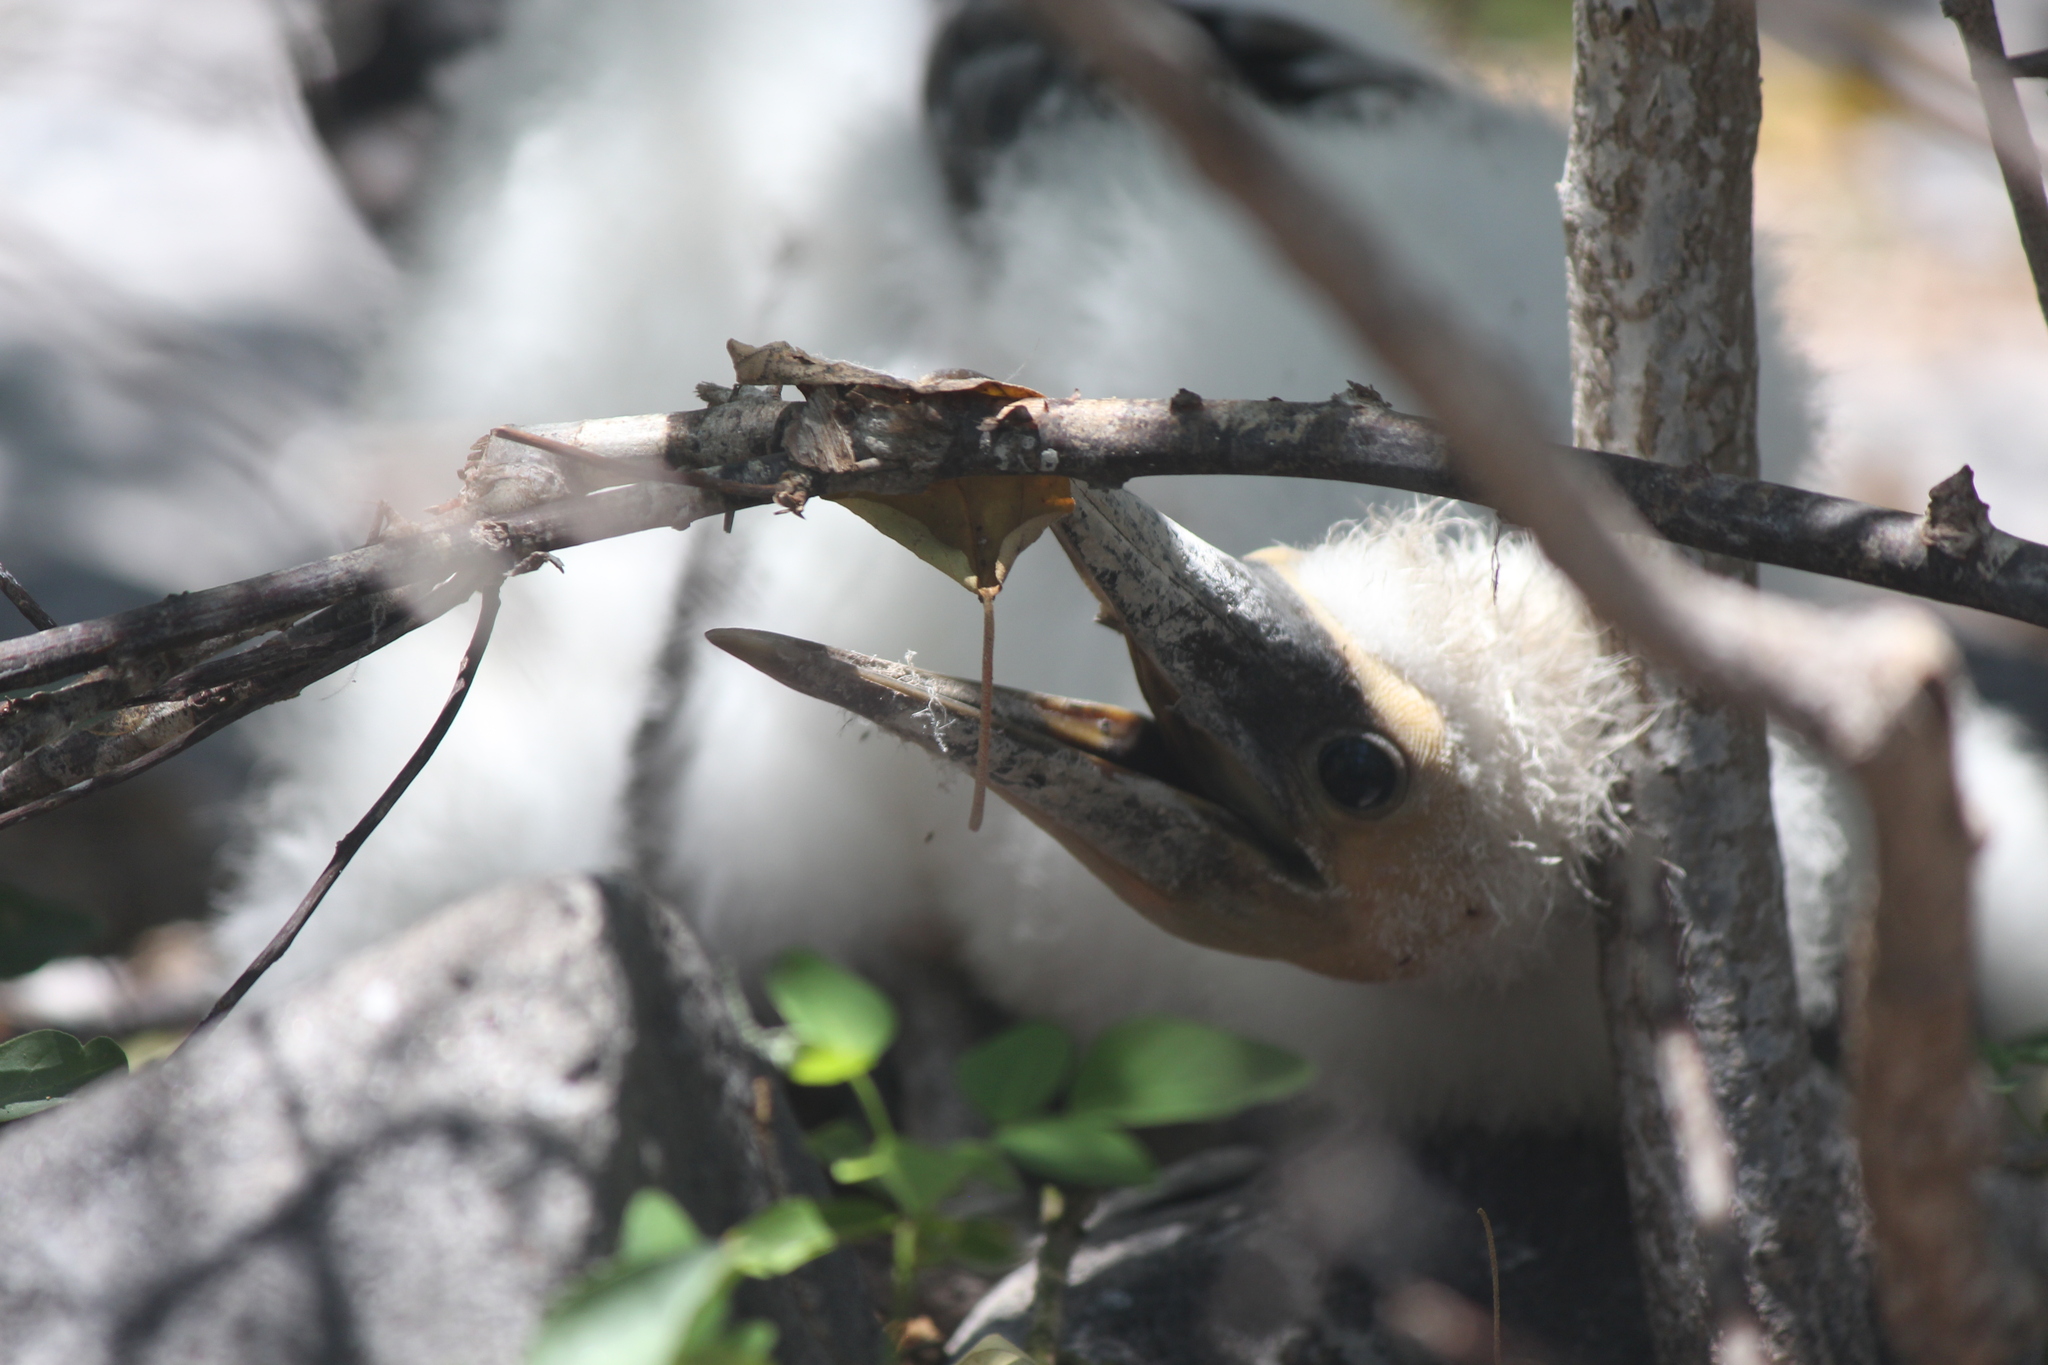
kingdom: Animalia
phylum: Chordata
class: Aves
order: Suliformes
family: Sulidae
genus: Sula
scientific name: Sula granti
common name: Nazca booby
